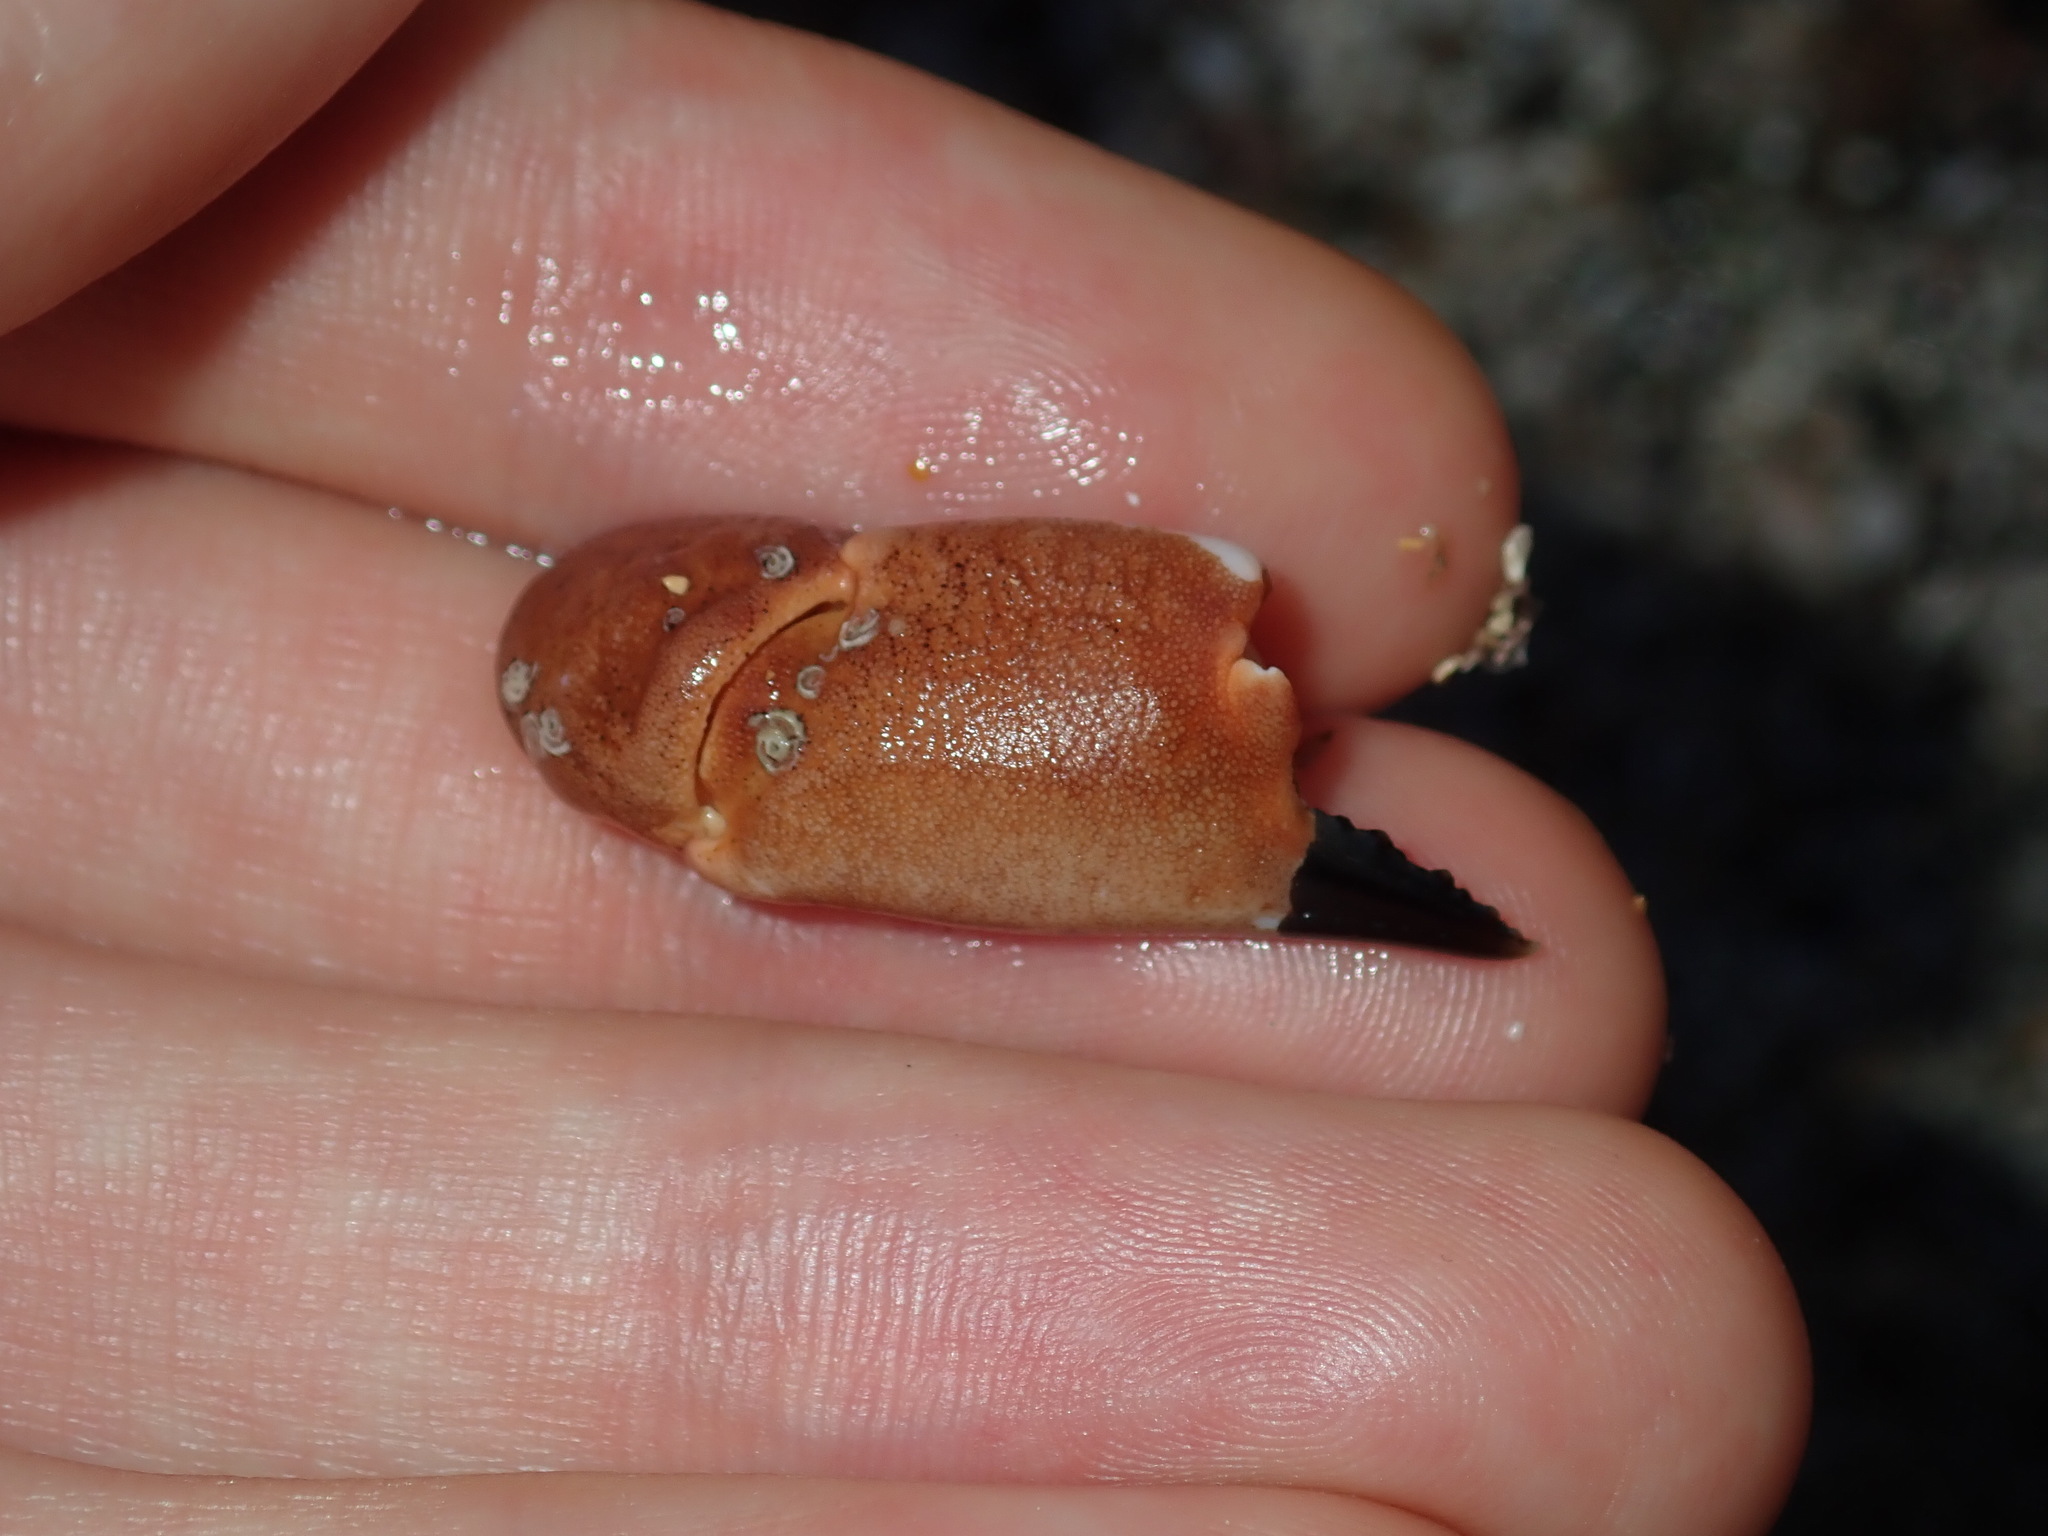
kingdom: Animalia
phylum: Arthropoda
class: Malacostraca
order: Decapoda
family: Oziidae
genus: Ozius
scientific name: Ozius truncatus
